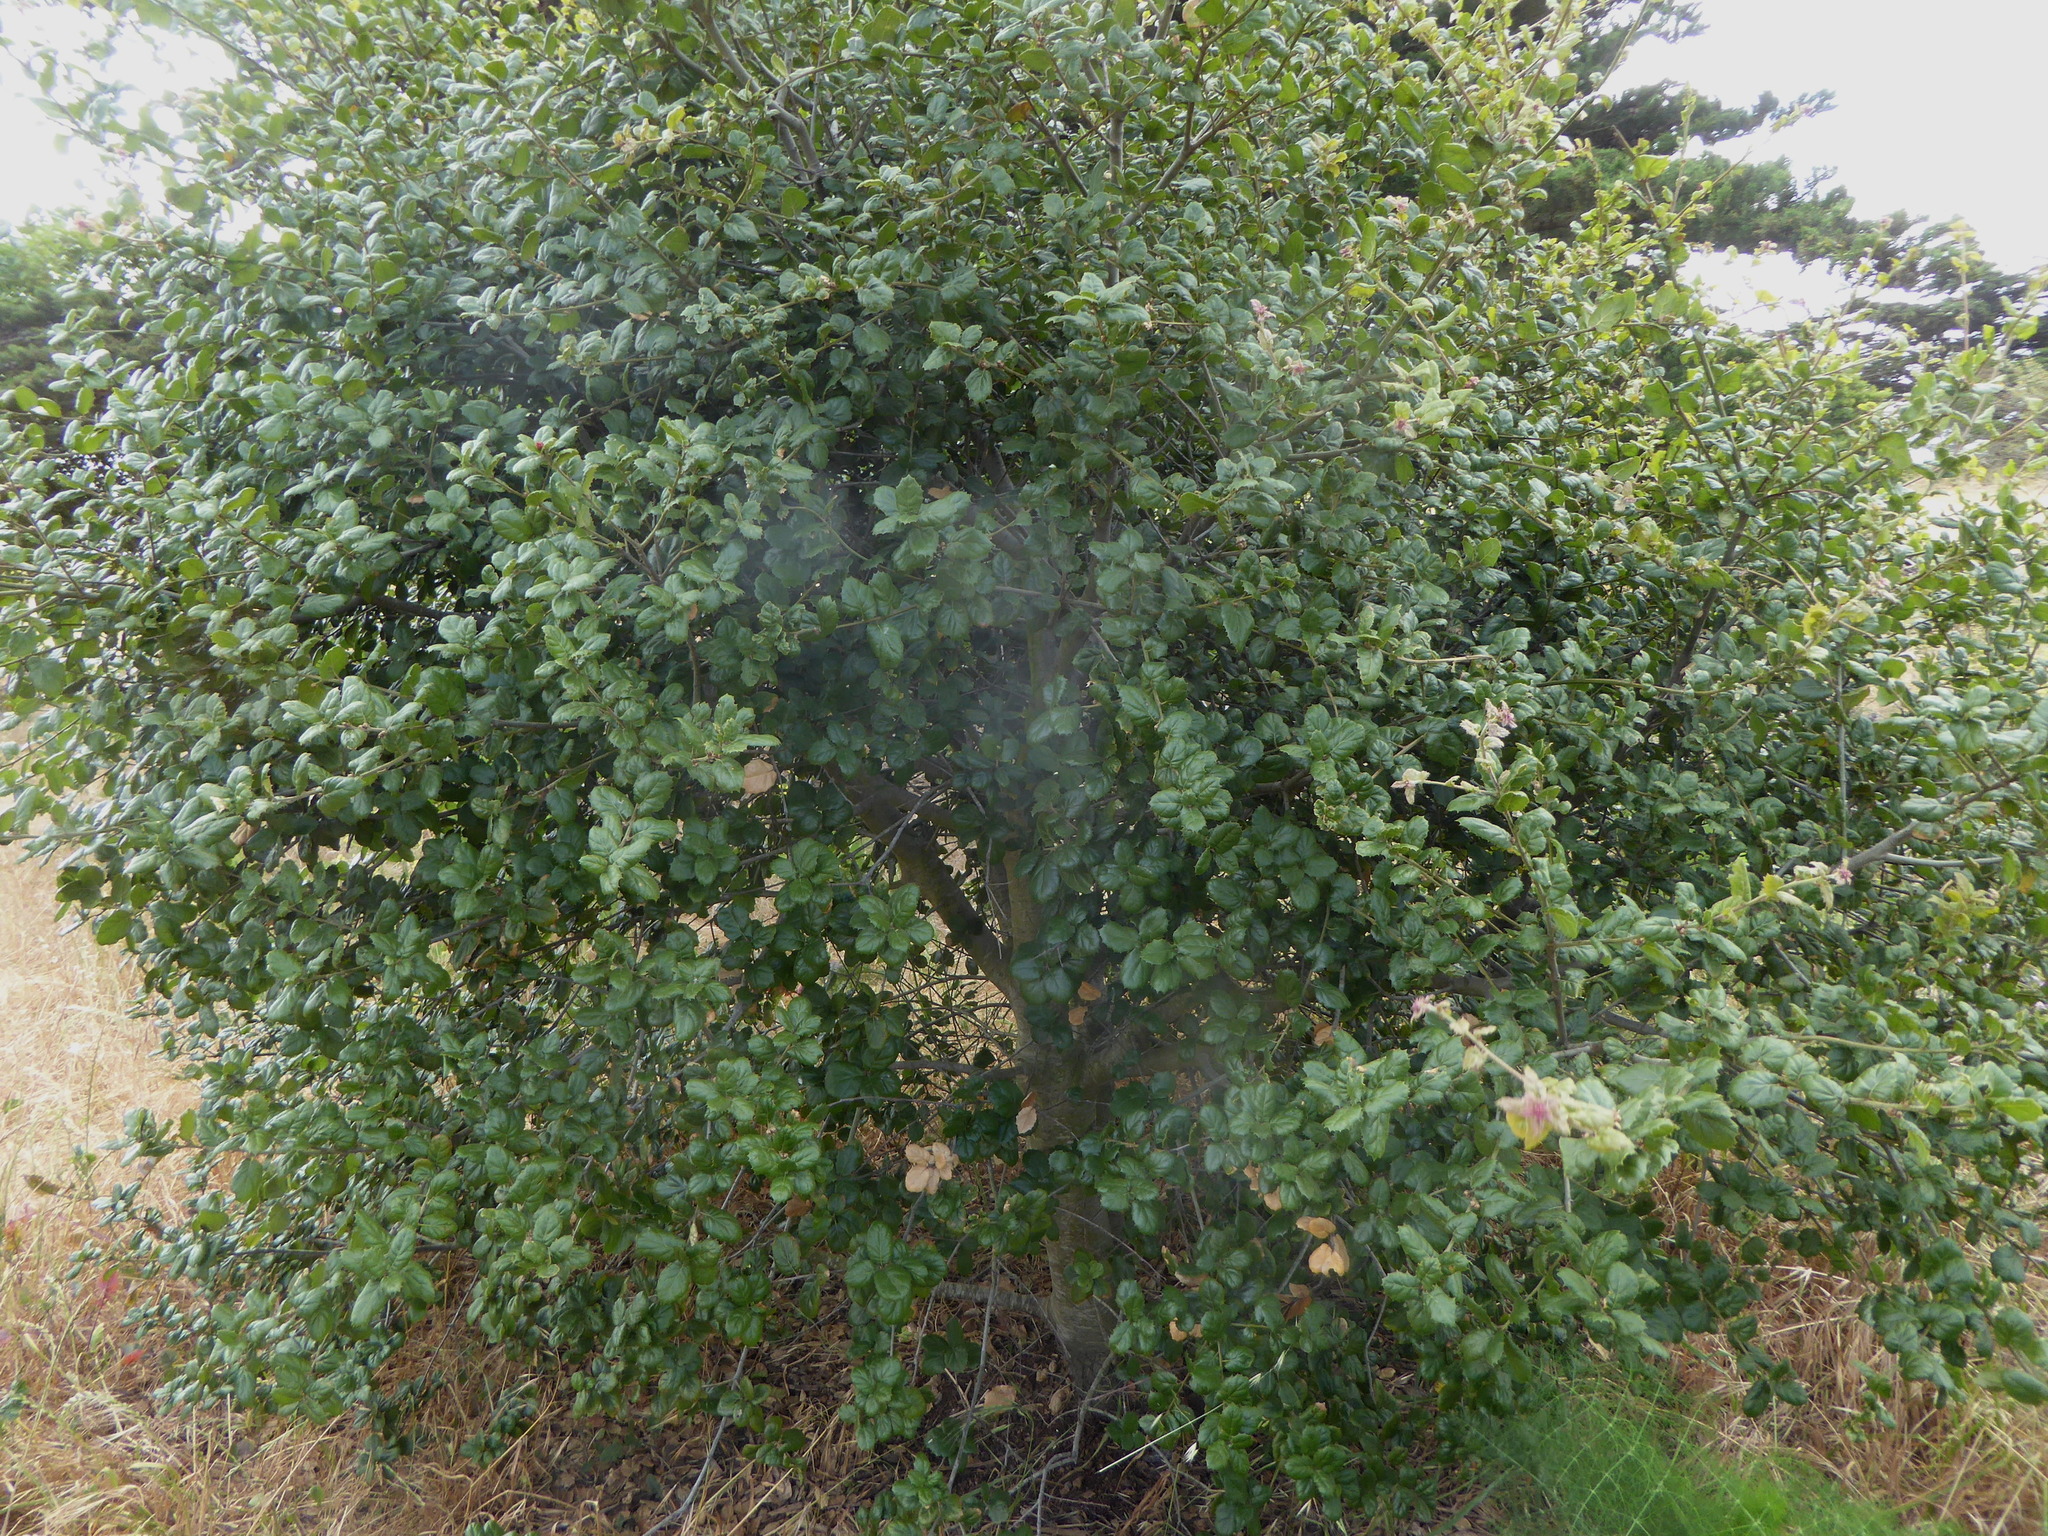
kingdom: Plantae
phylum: Tracheophyta
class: Magnoliopsida
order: Fagales
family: Fagaceae
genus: Quercus
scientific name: Quercus agrifolia
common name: California live oak
